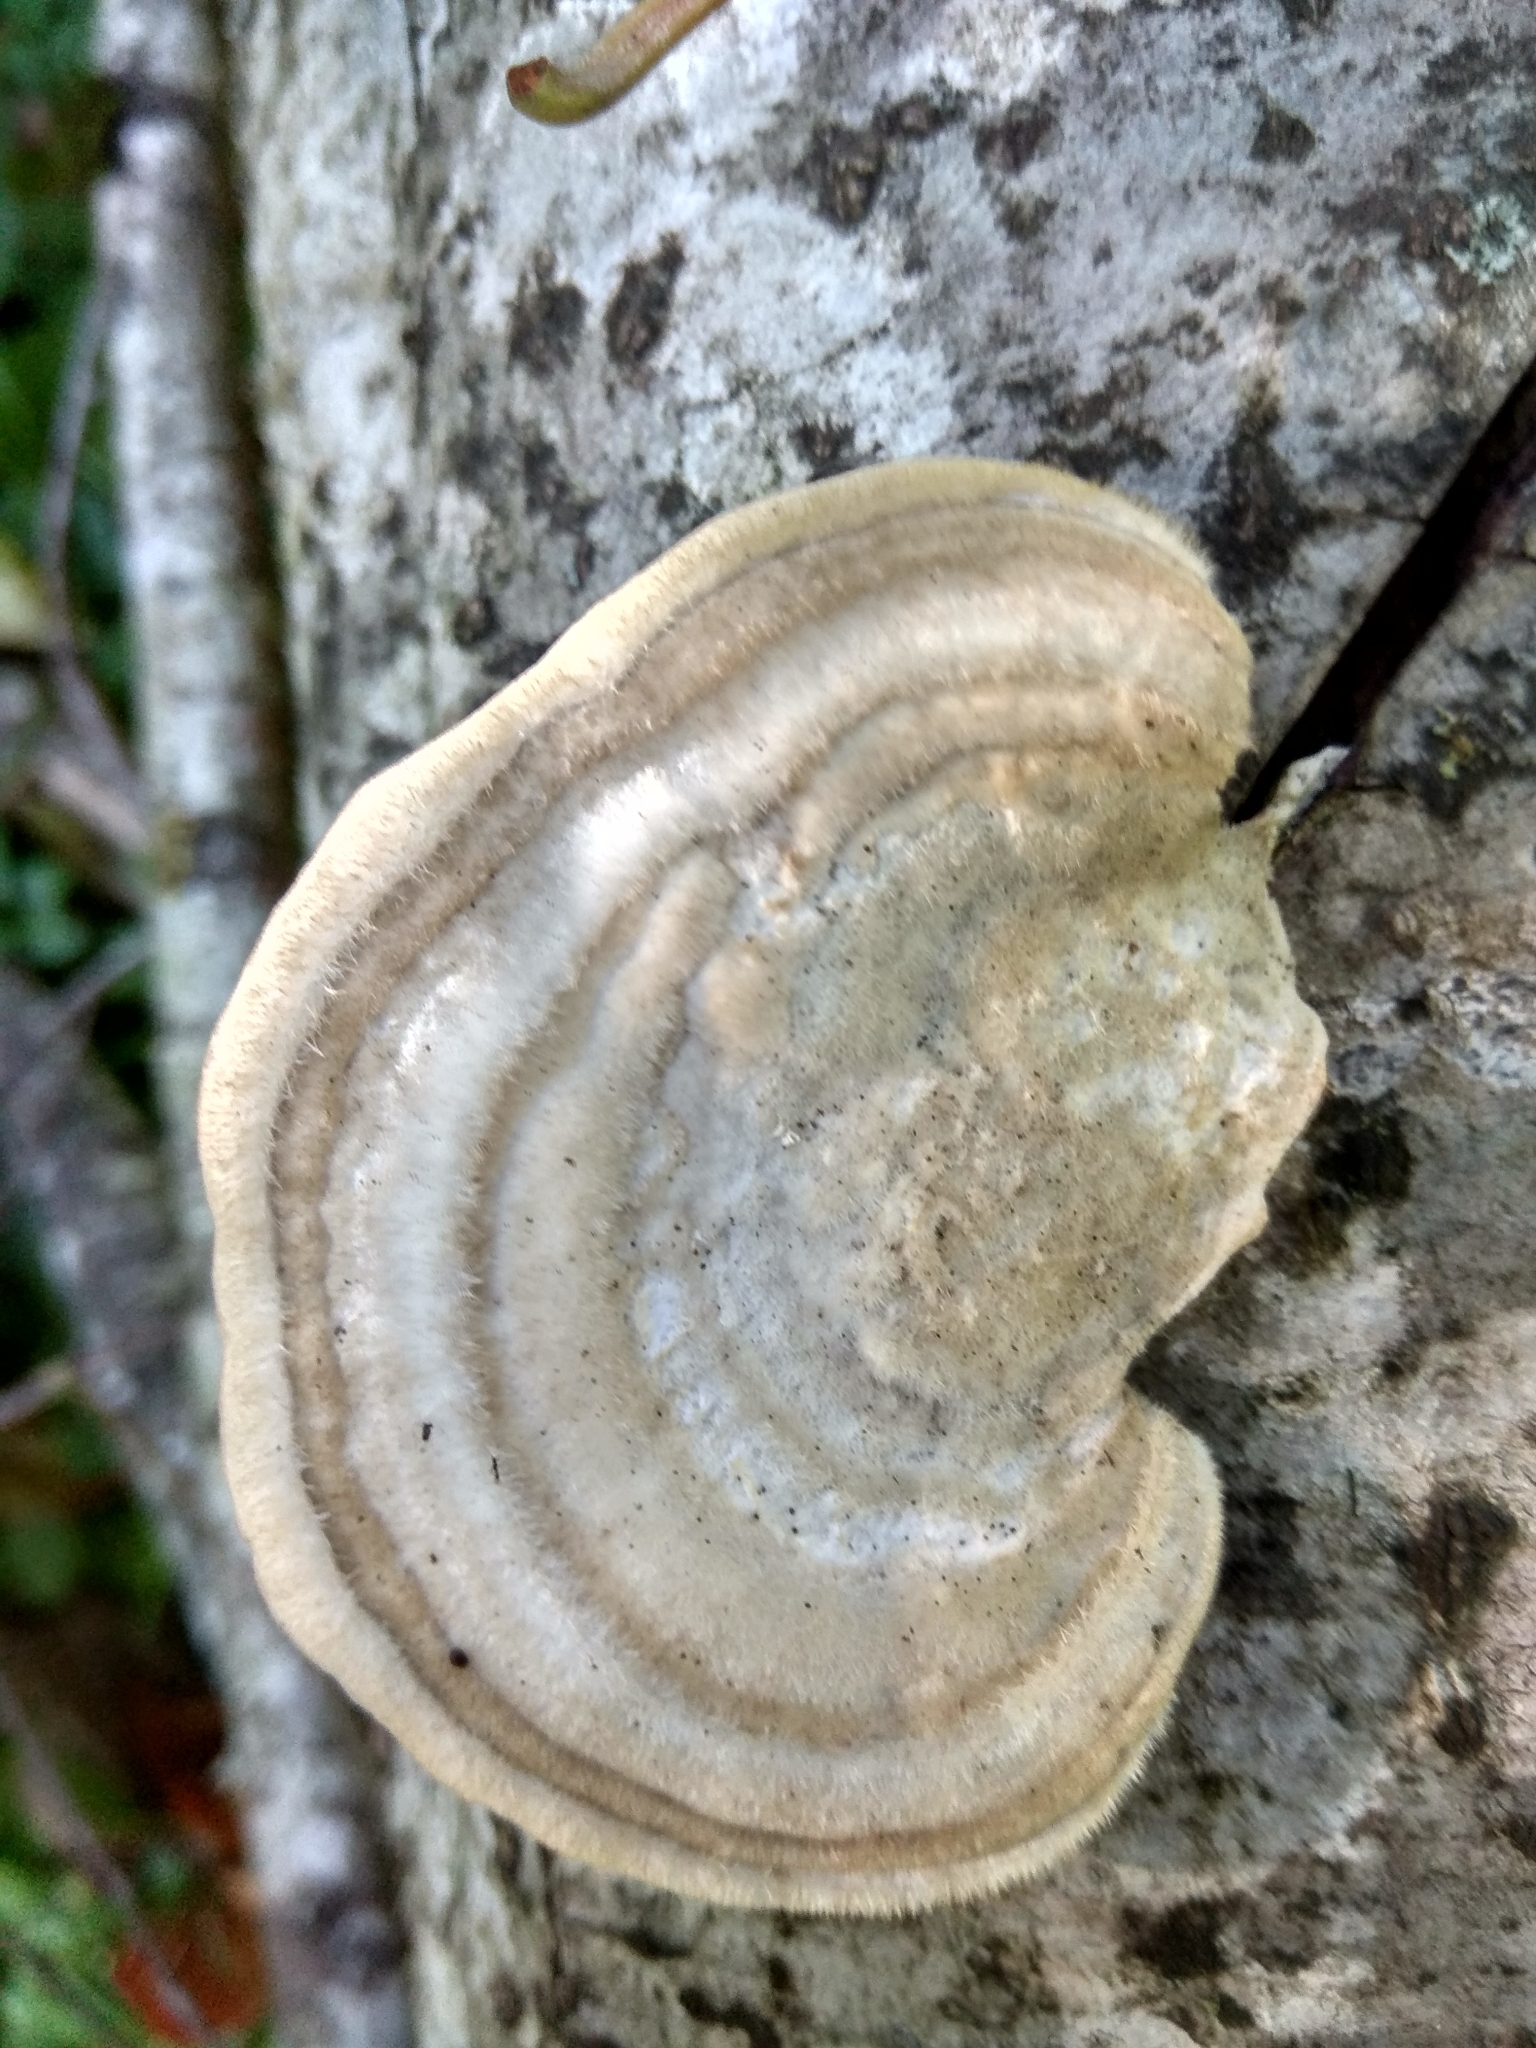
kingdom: Fungi
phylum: Basidiomycota
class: Agaricomycetes
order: Polyporales
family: Polyporaceae
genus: Trametes
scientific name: Trametes hirsuta
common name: Hairy bracket
